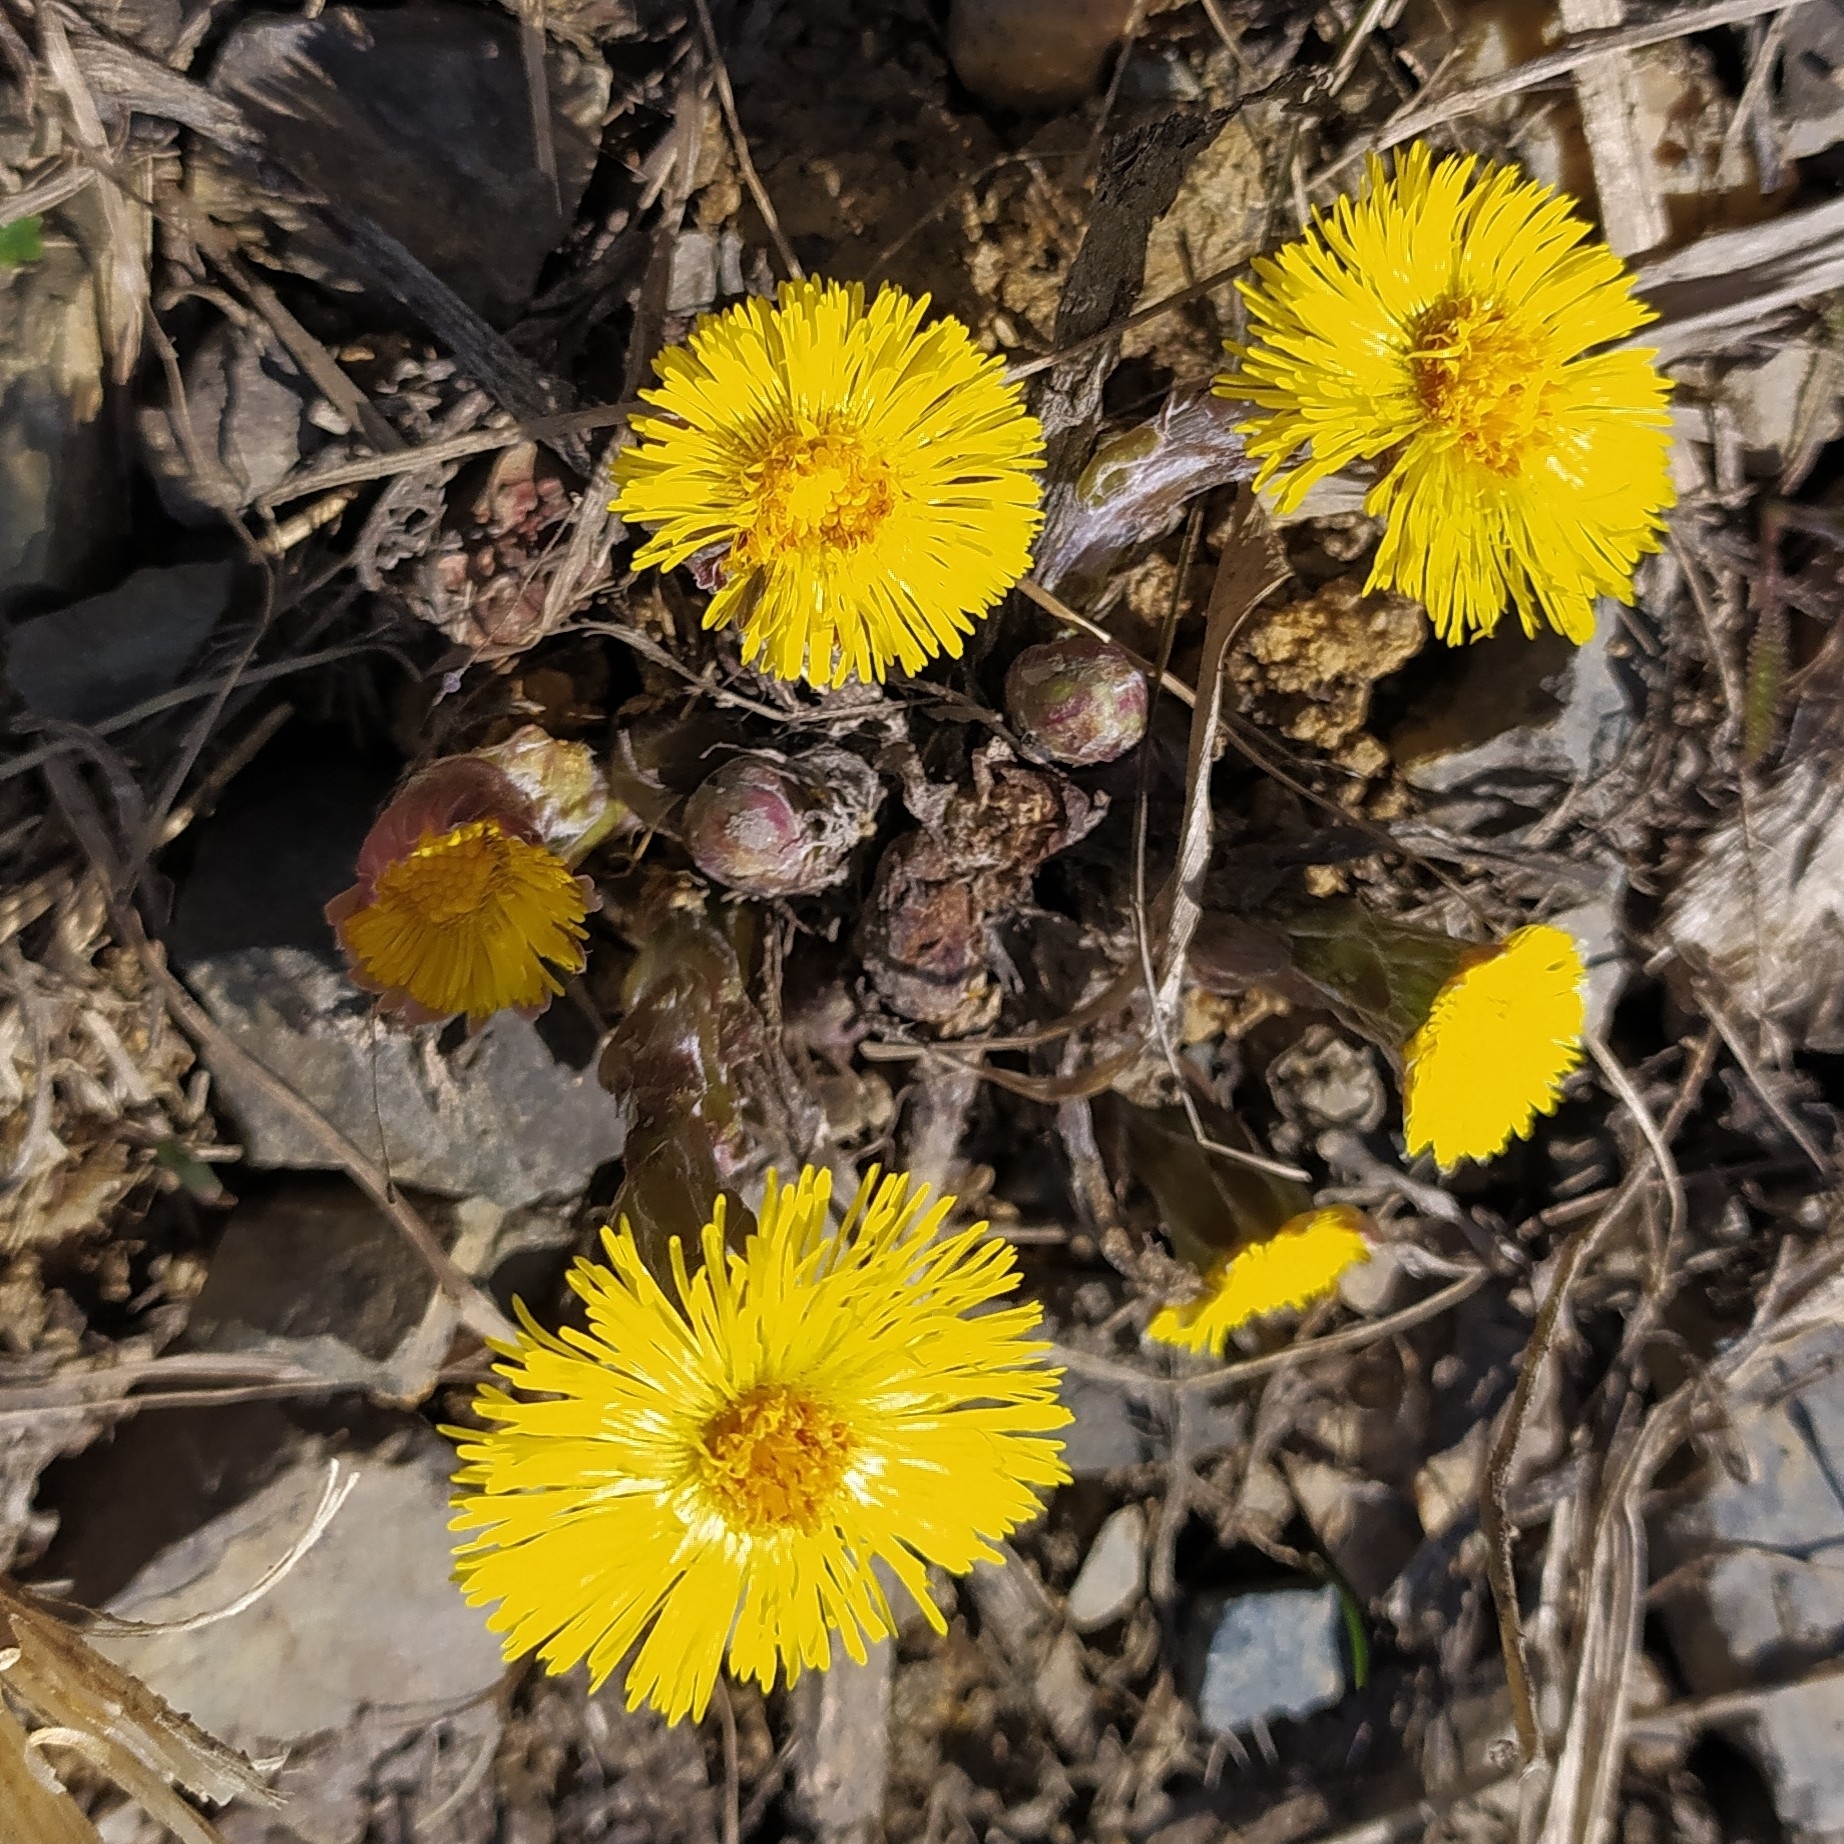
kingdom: Plantae
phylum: Tracheophyta
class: Magnoliopsida
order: Asterales
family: Asteraceae
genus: Tussilago
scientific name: Tussilago farfara
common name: Coltsfoot
